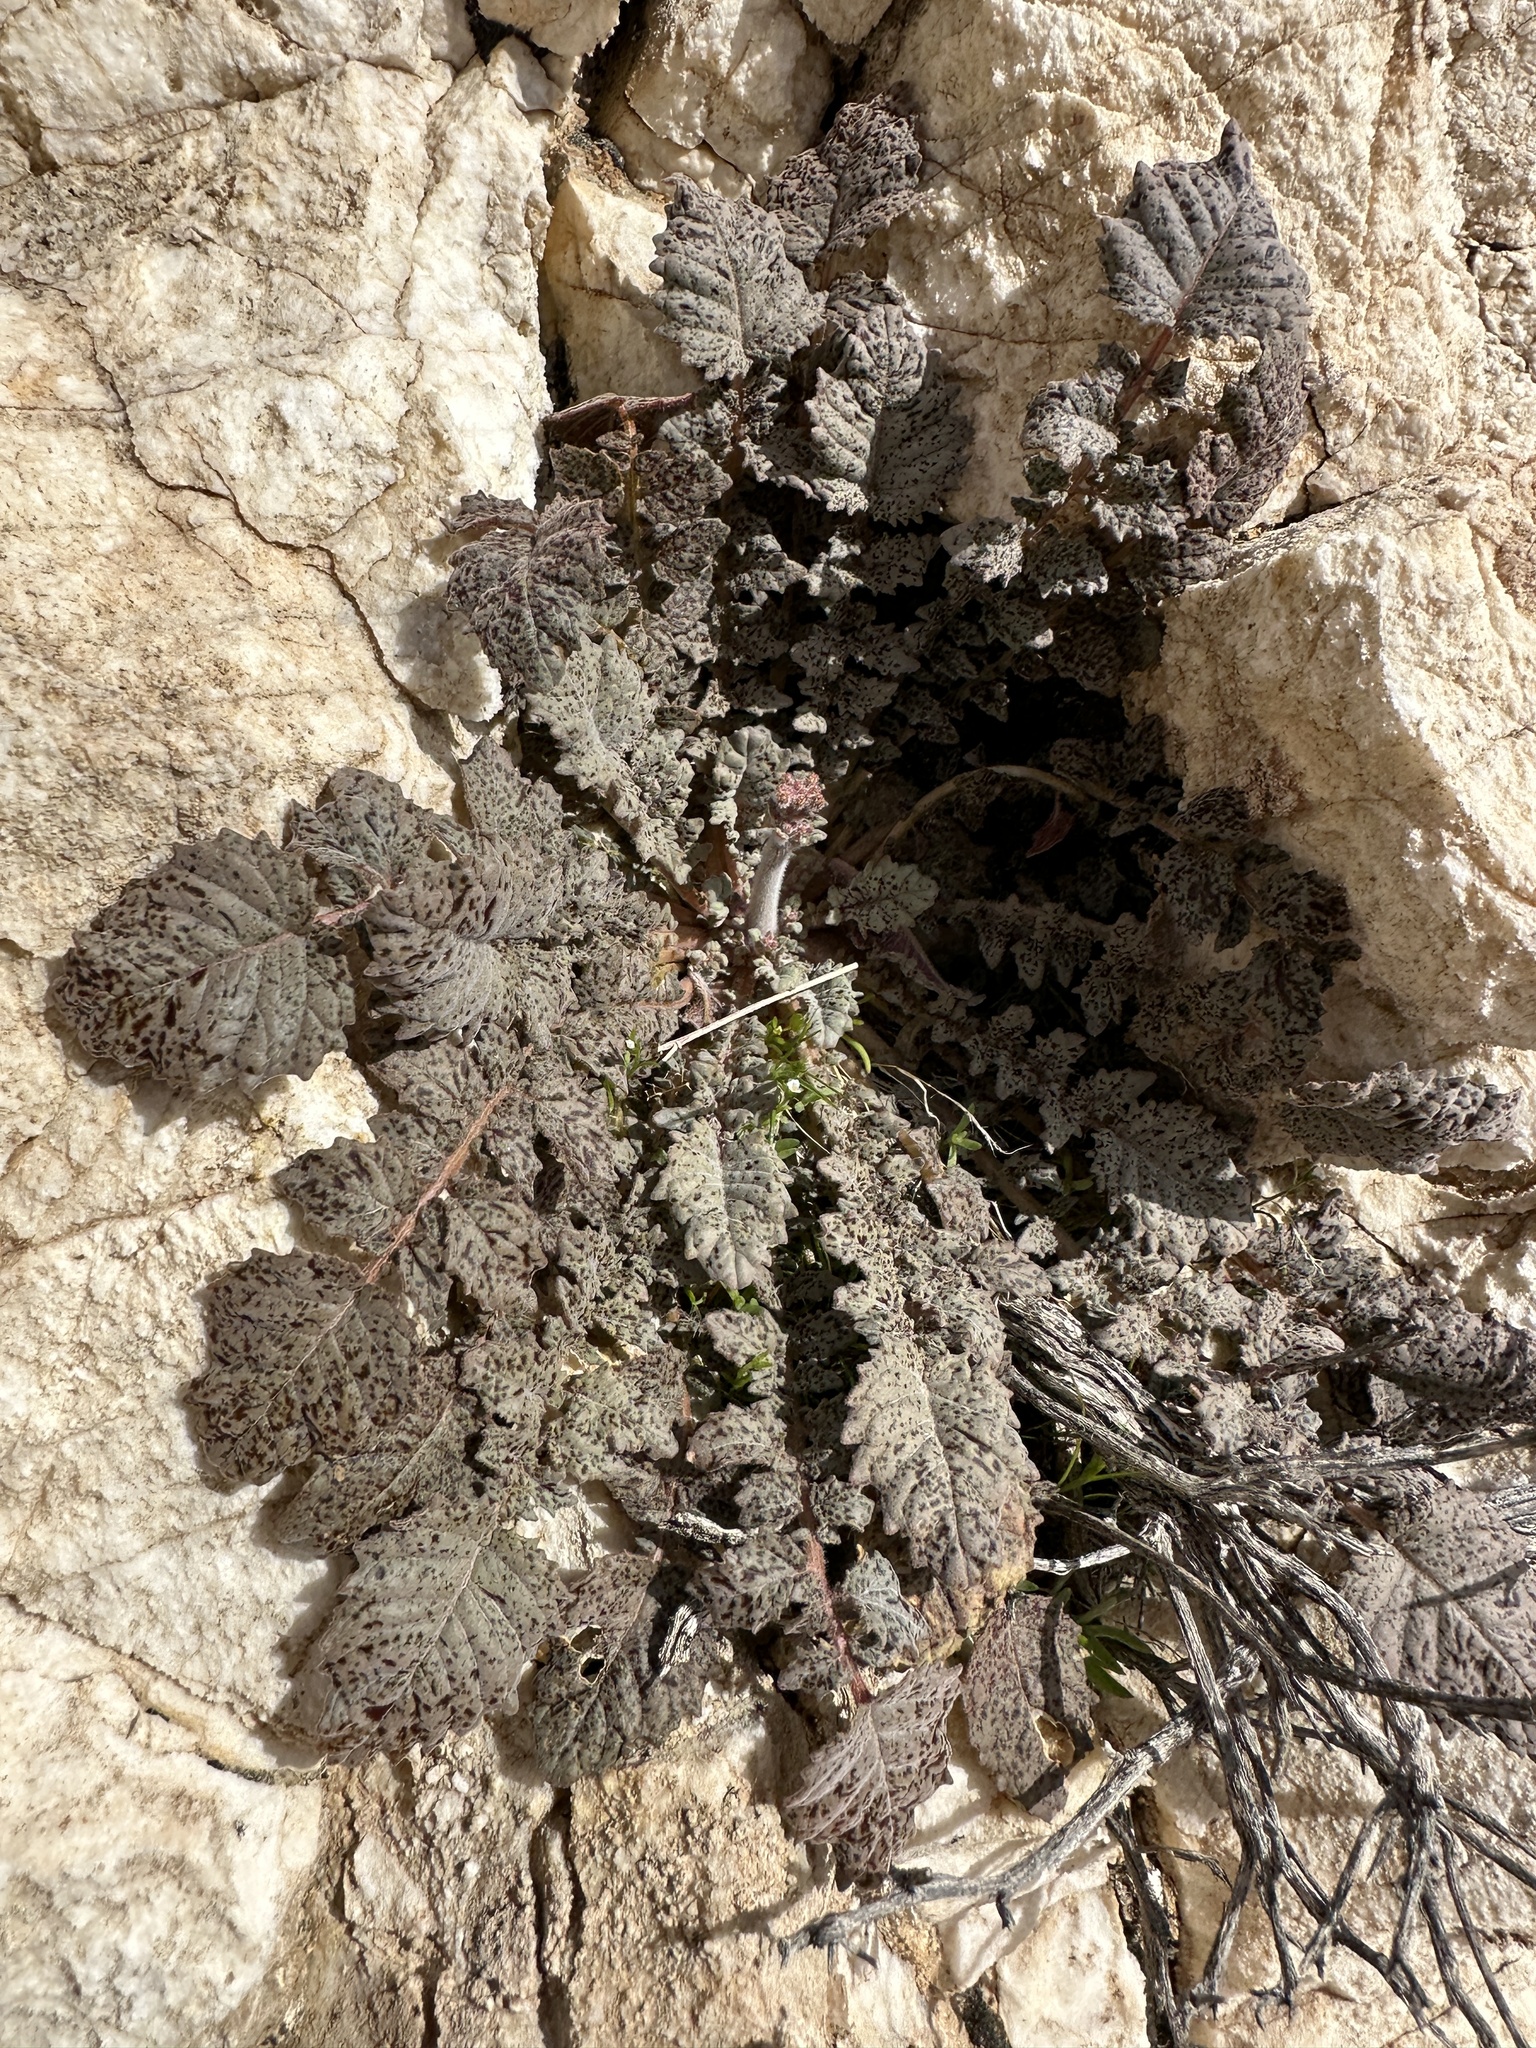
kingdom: Plantae
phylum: Tracheophyta
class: Magnoliopsida
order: Myrtales
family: Onagraceae
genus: Chylismia
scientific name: Chylismia walkeri
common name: Walker's suncup
